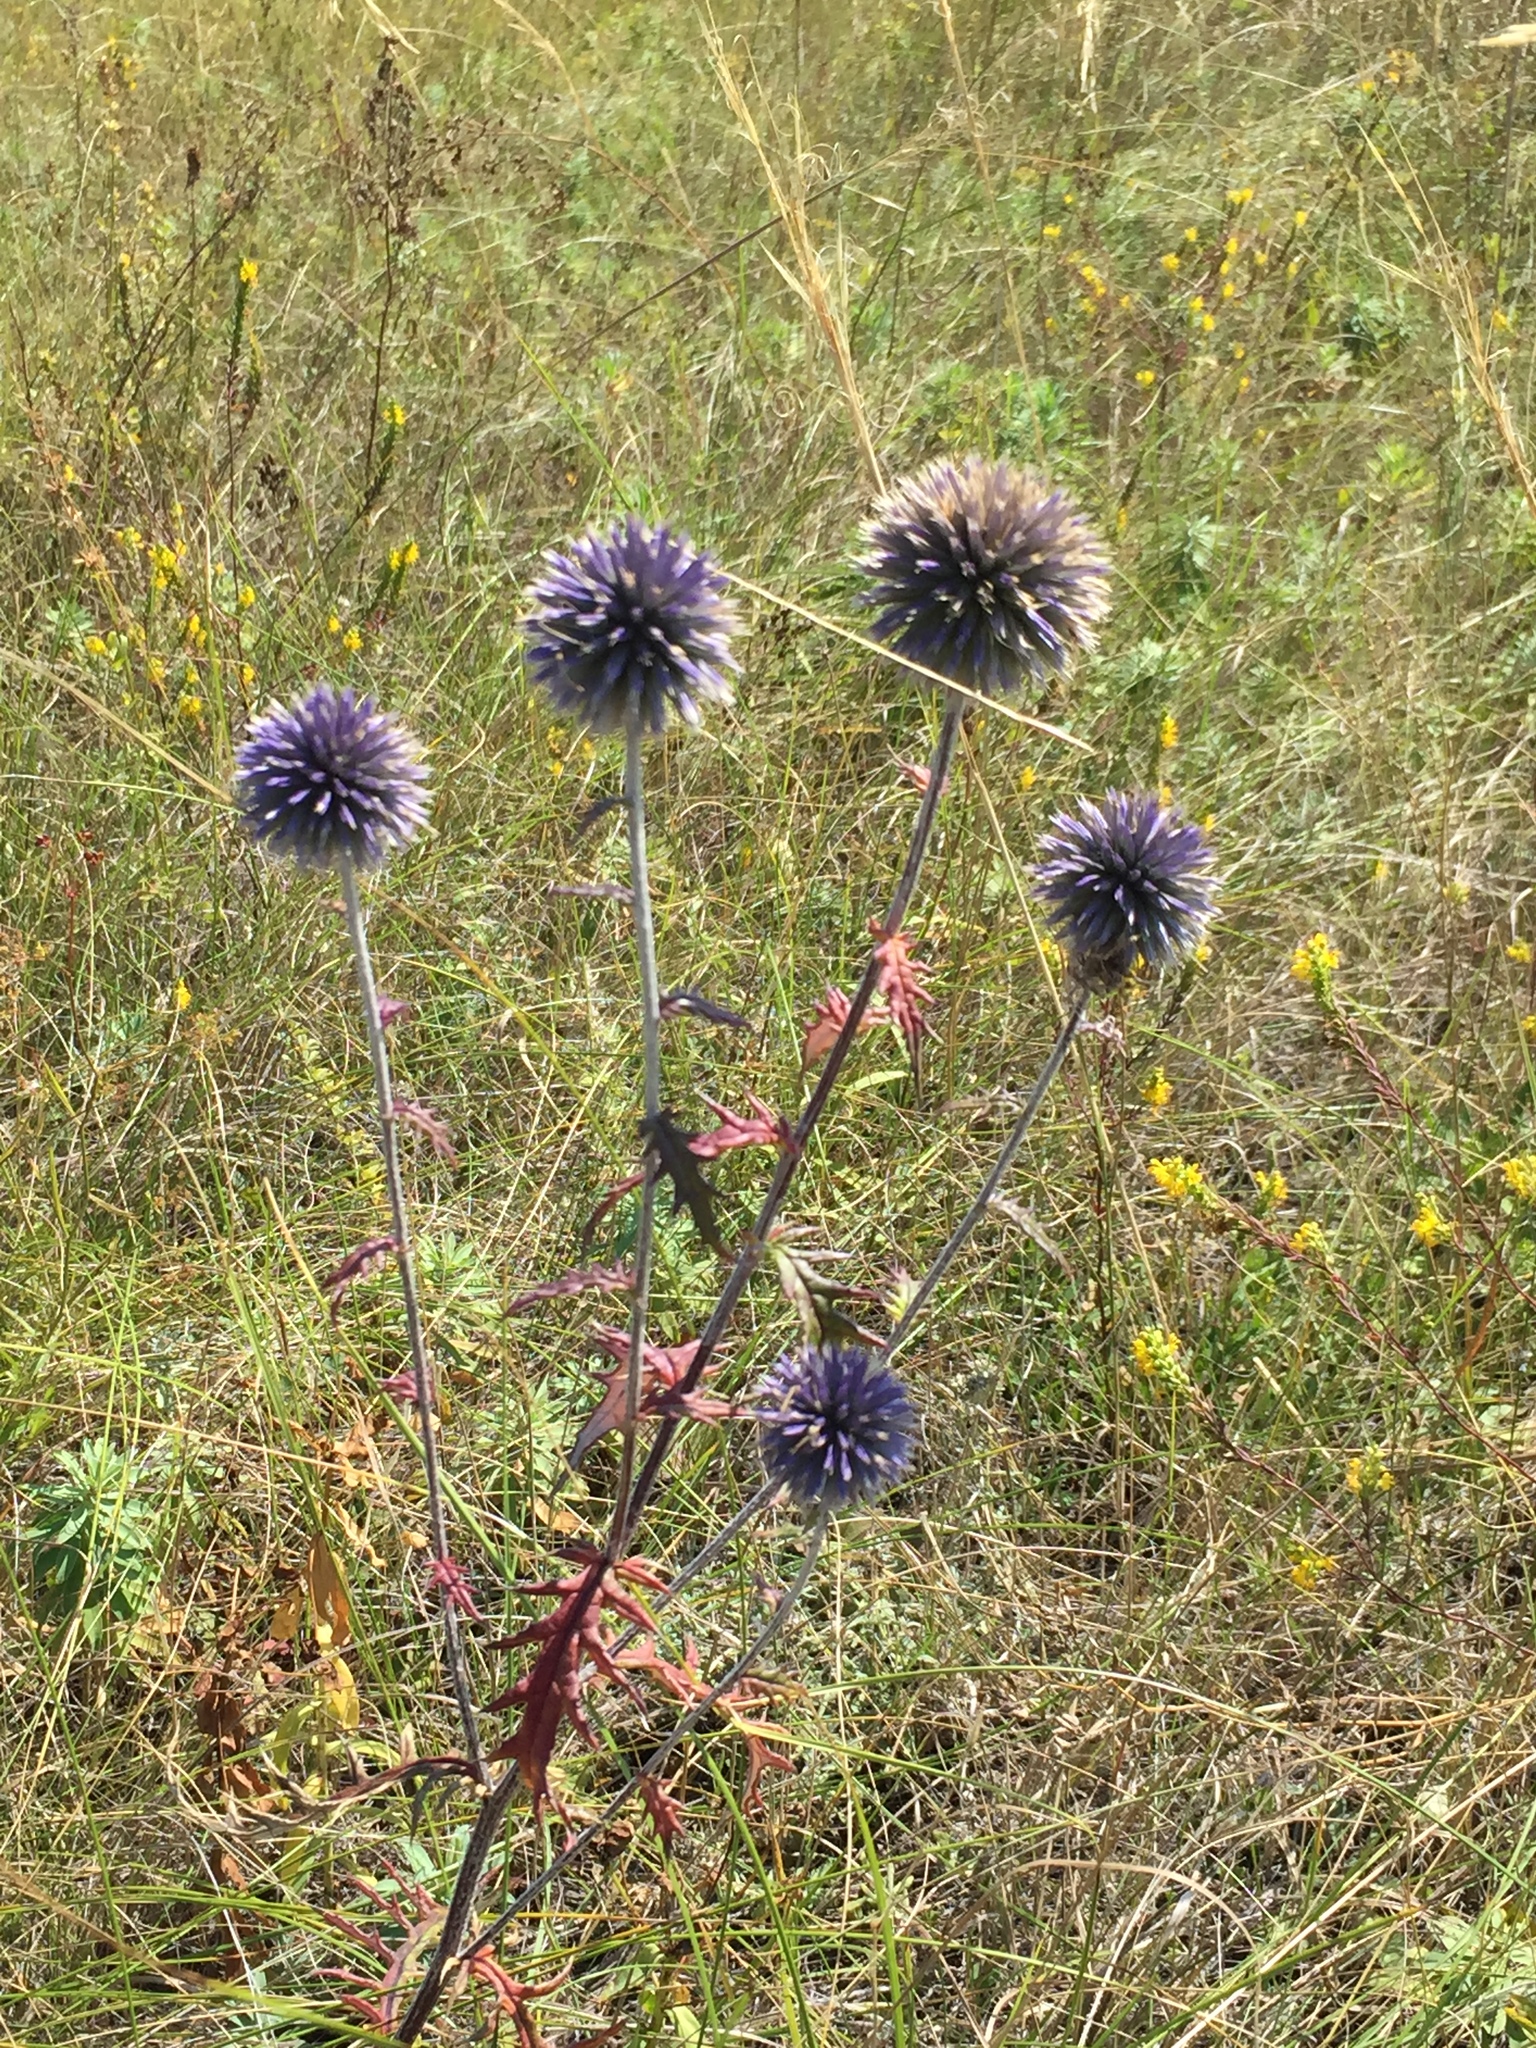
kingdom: Plantae
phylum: Tracheophyta
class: Magnoliopsida
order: Asterales
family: Asteraceae
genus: Echinops
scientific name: Echinops ritro
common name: Globe thistle
